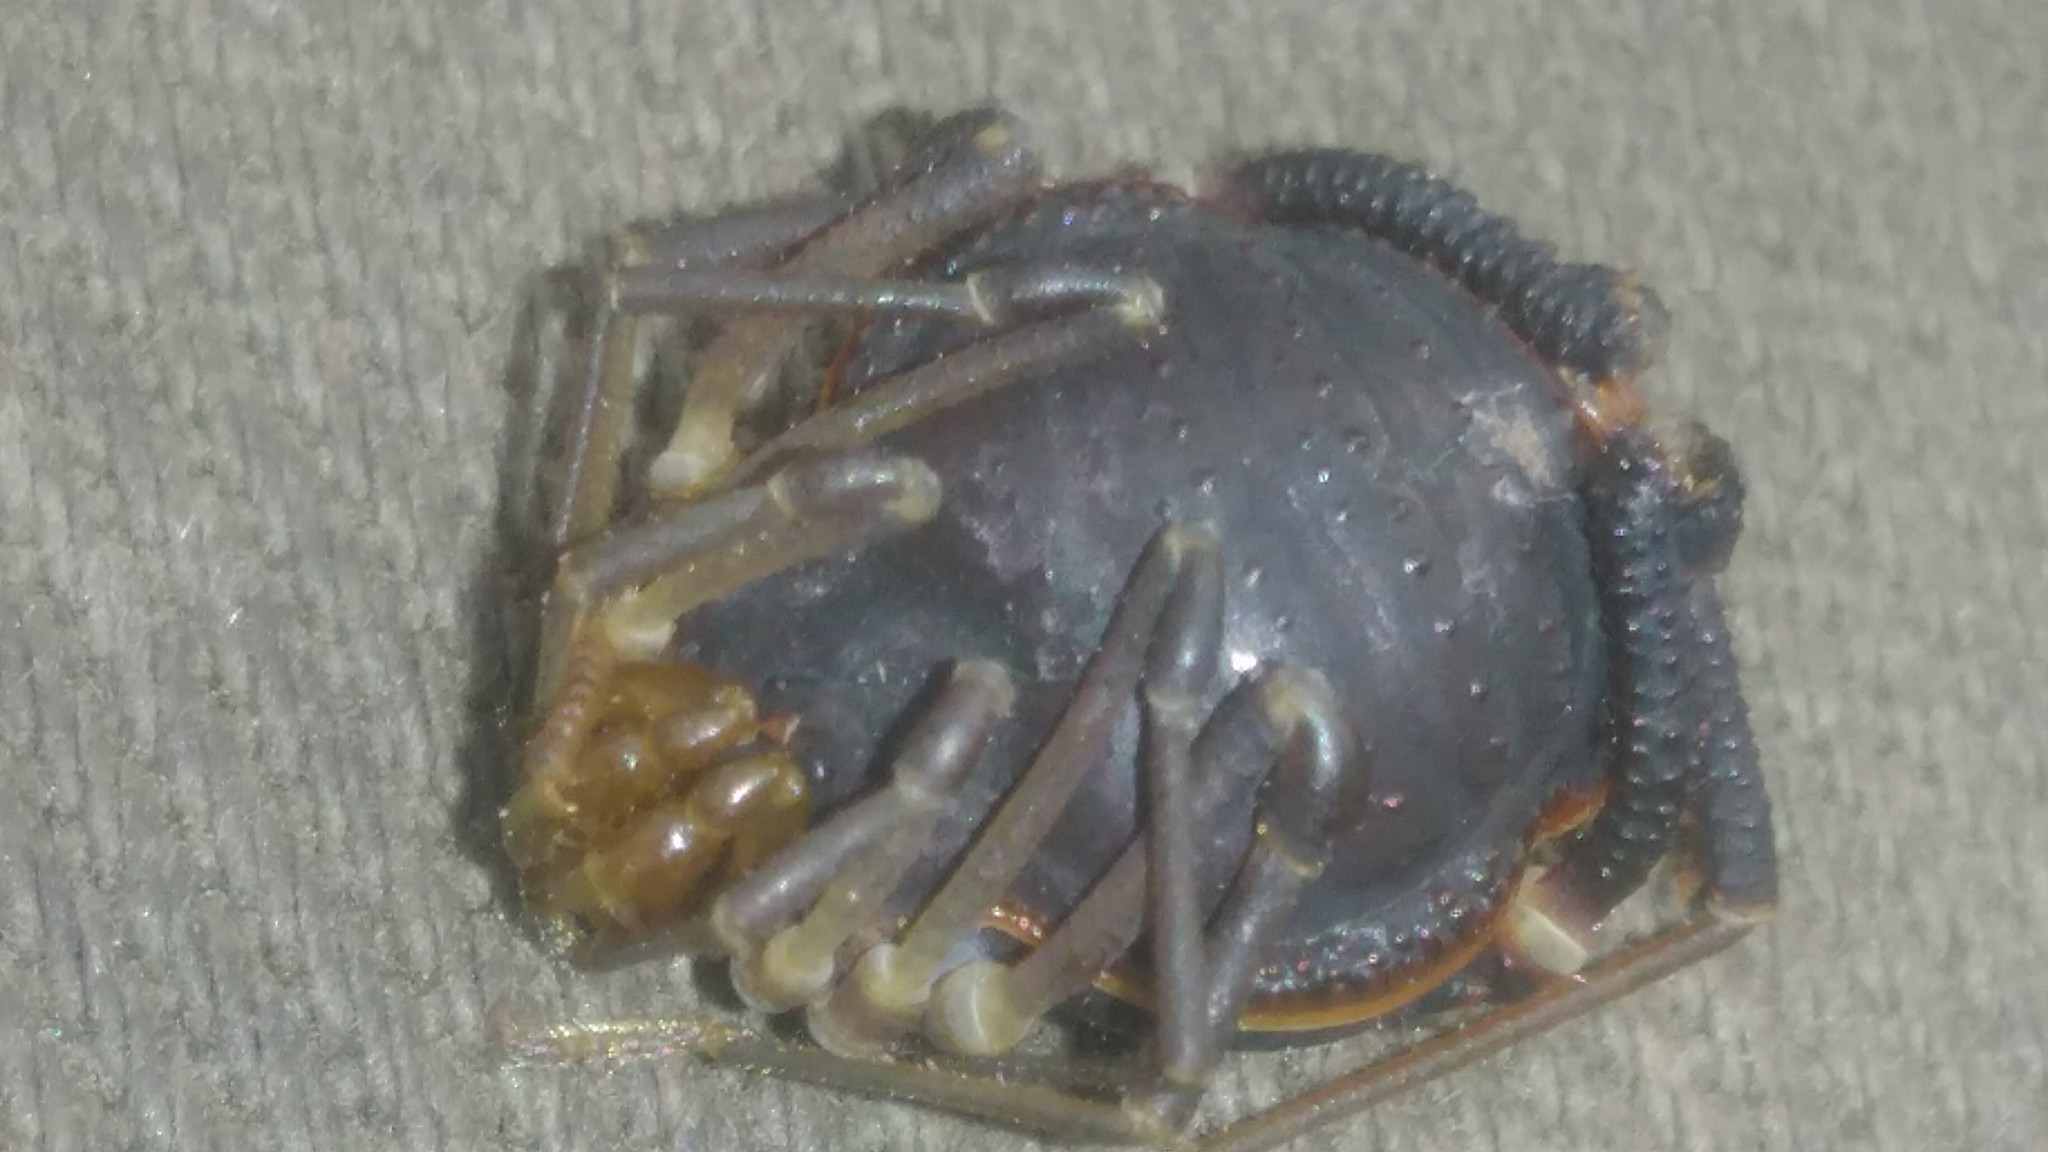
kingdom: Animalia
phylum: Arthropoda
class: Arachnida
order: Opiliones
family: Gonyleptidae
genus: Acanthopachylus
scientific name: Acanthopachylus robustus
